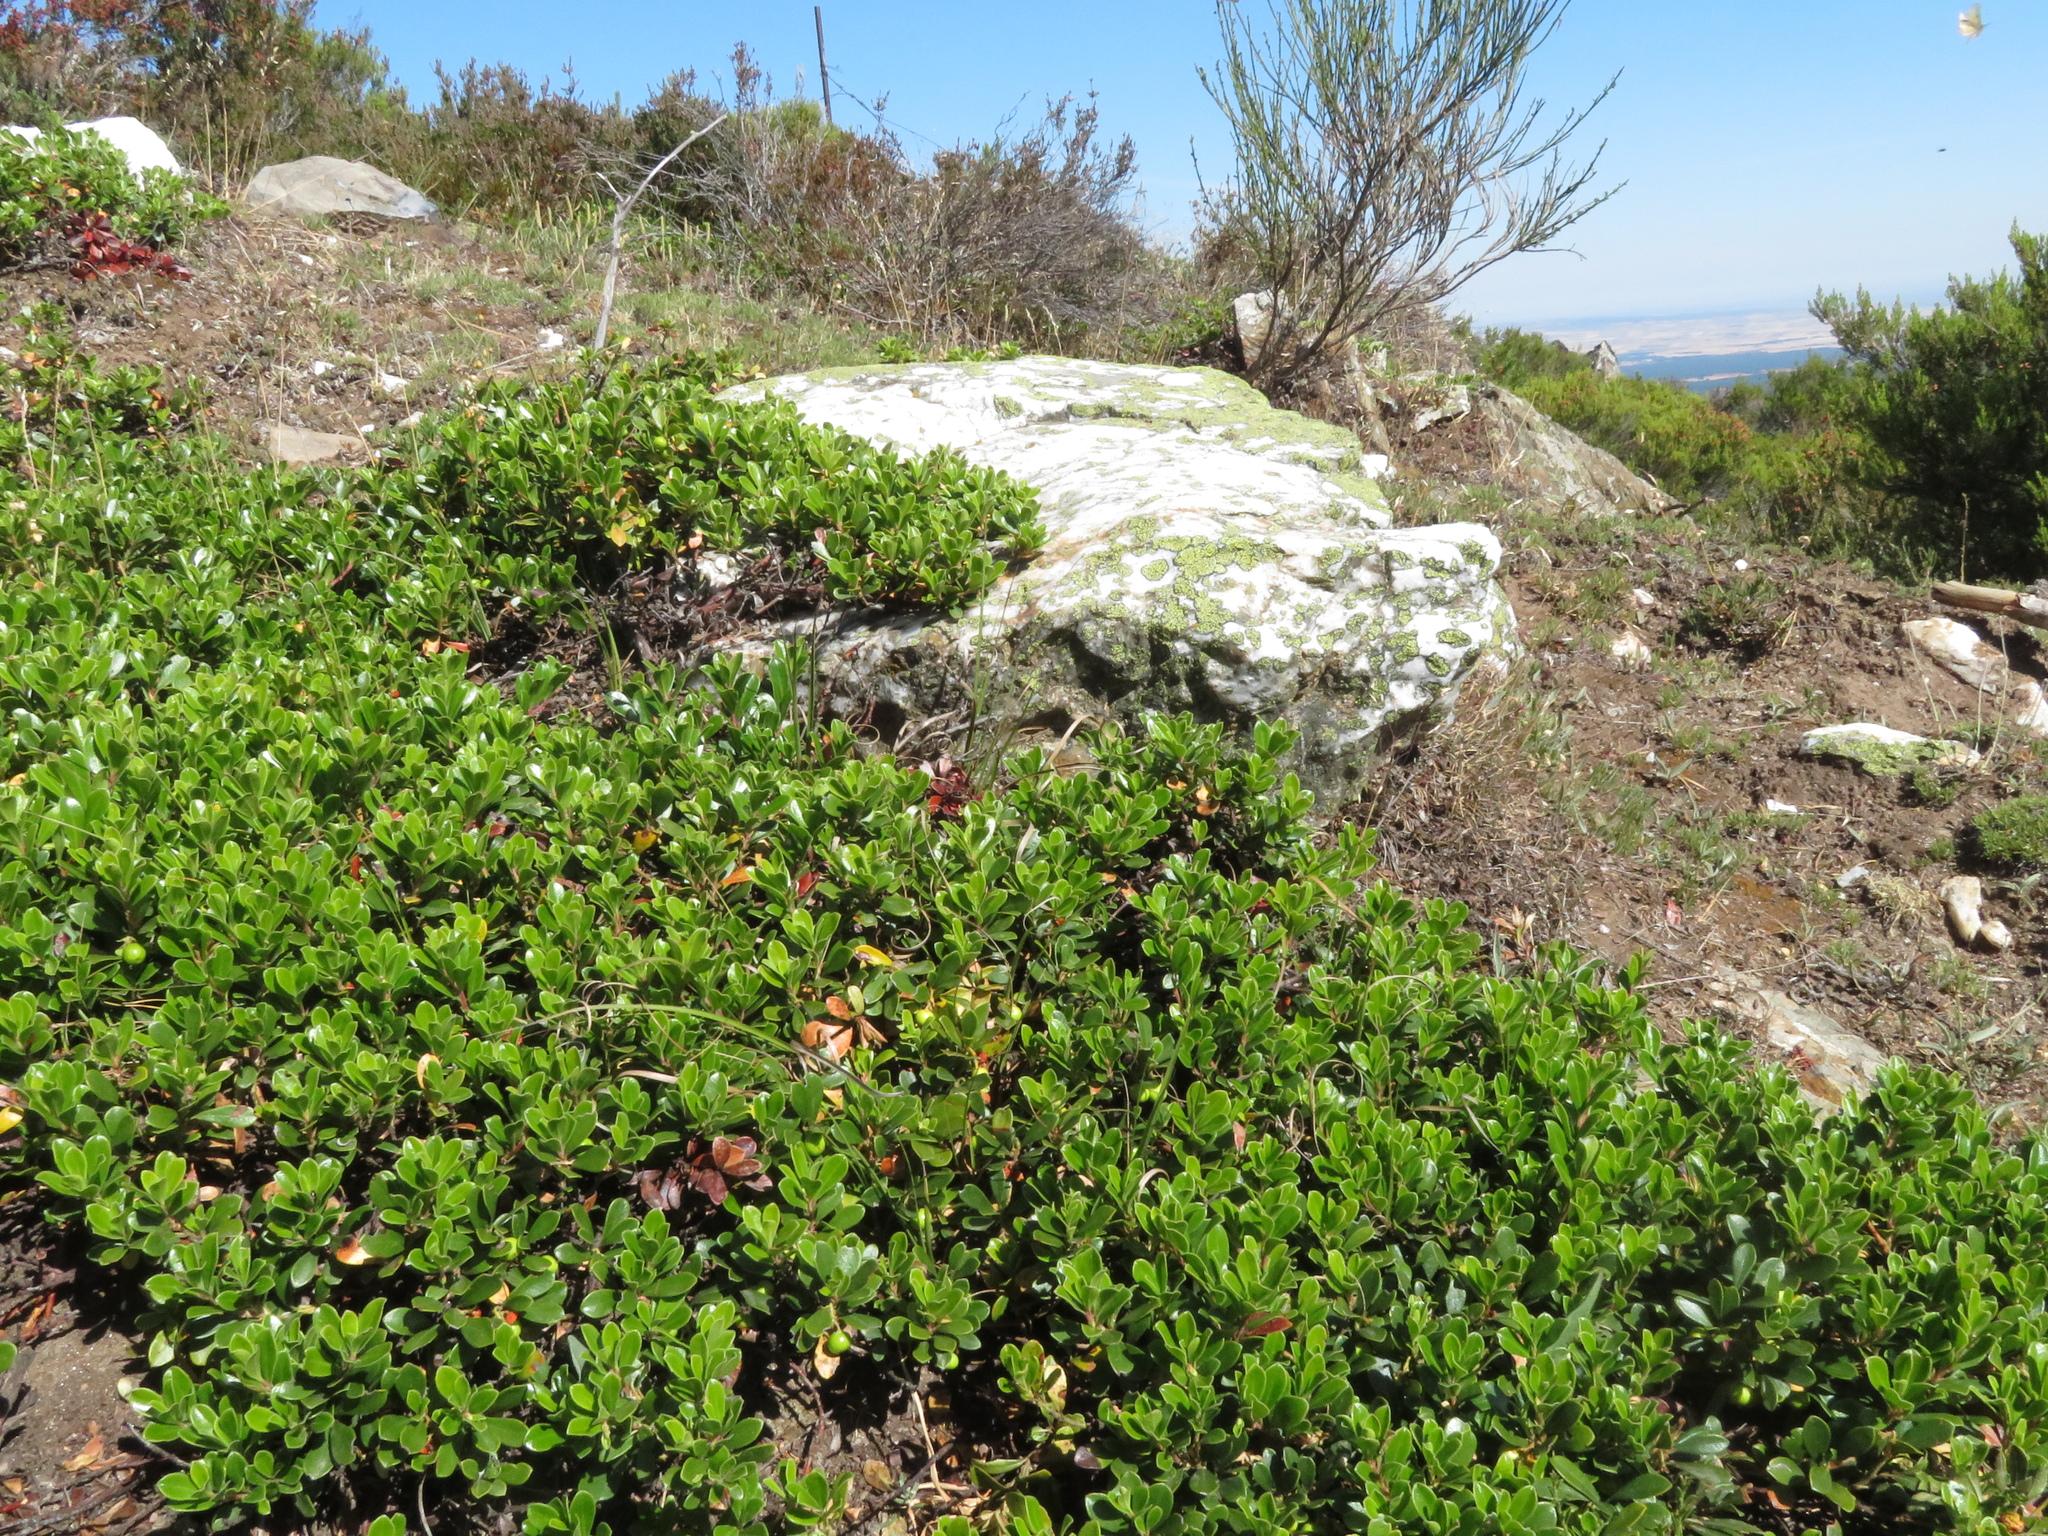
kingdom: Plantae
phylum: Tracheophyta
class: Magnoliopsida
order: Ericales
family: Ericaceae
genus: Arctostaphylos
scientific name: Arctostaphylos uva-ursi
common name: Bearberry
